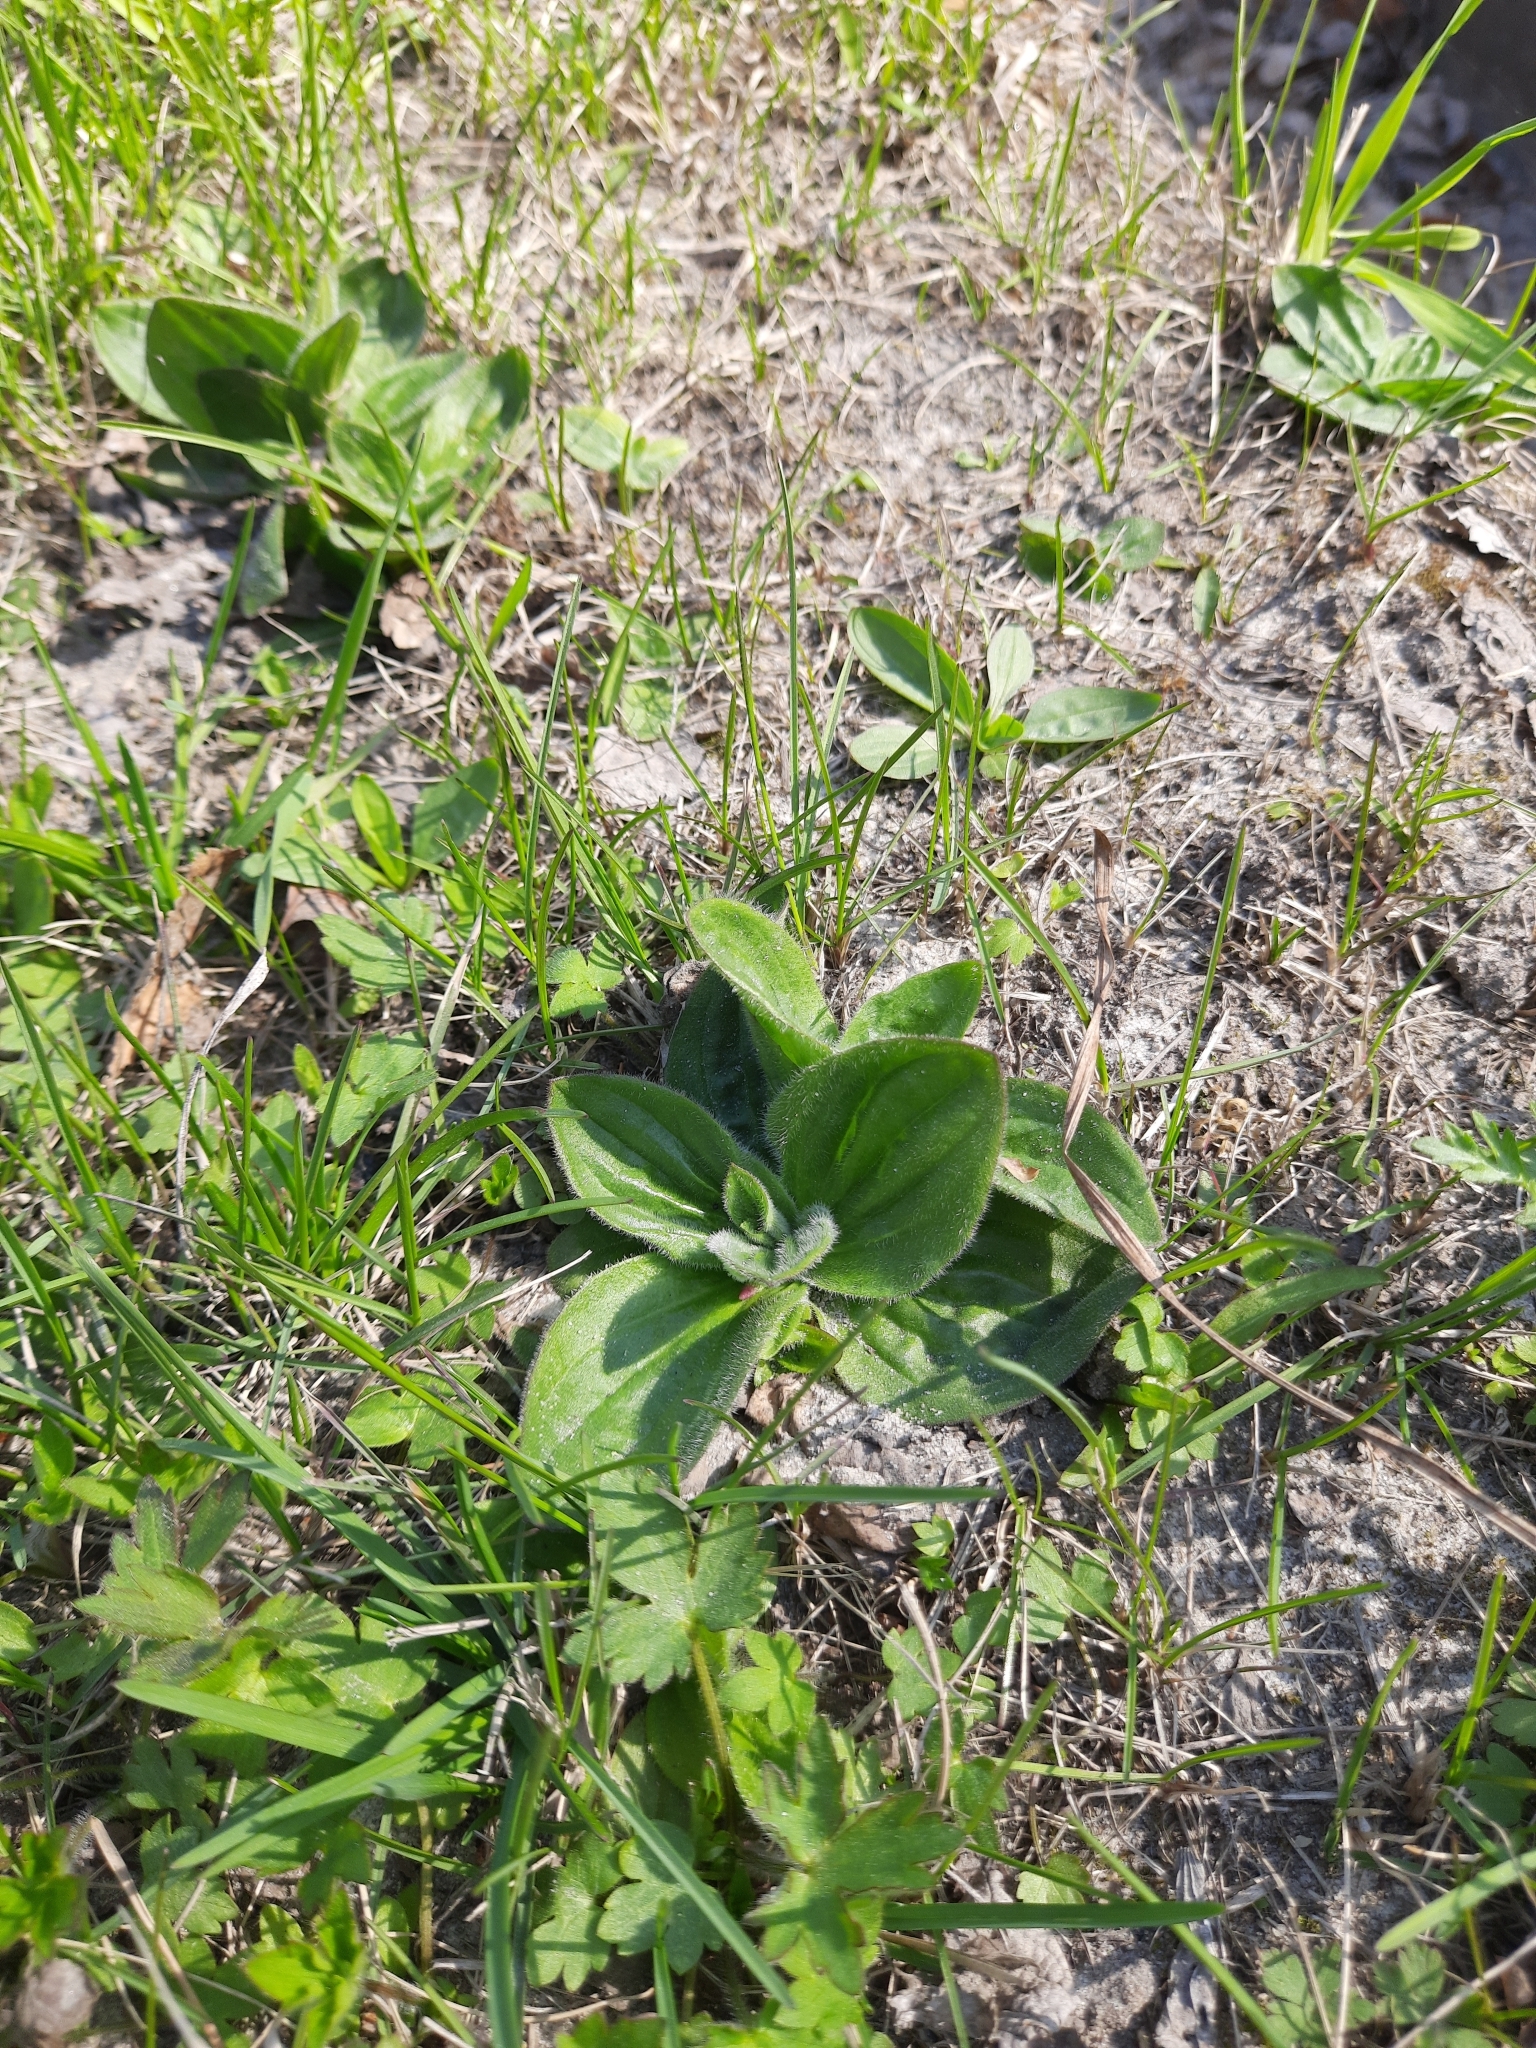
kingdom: Plantae
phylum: Tracheophyta
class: Magnoliopsida
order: Lamiales
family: Plantaginaceae
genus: Plantago
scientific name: Plantago media
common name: Hoary plantain
